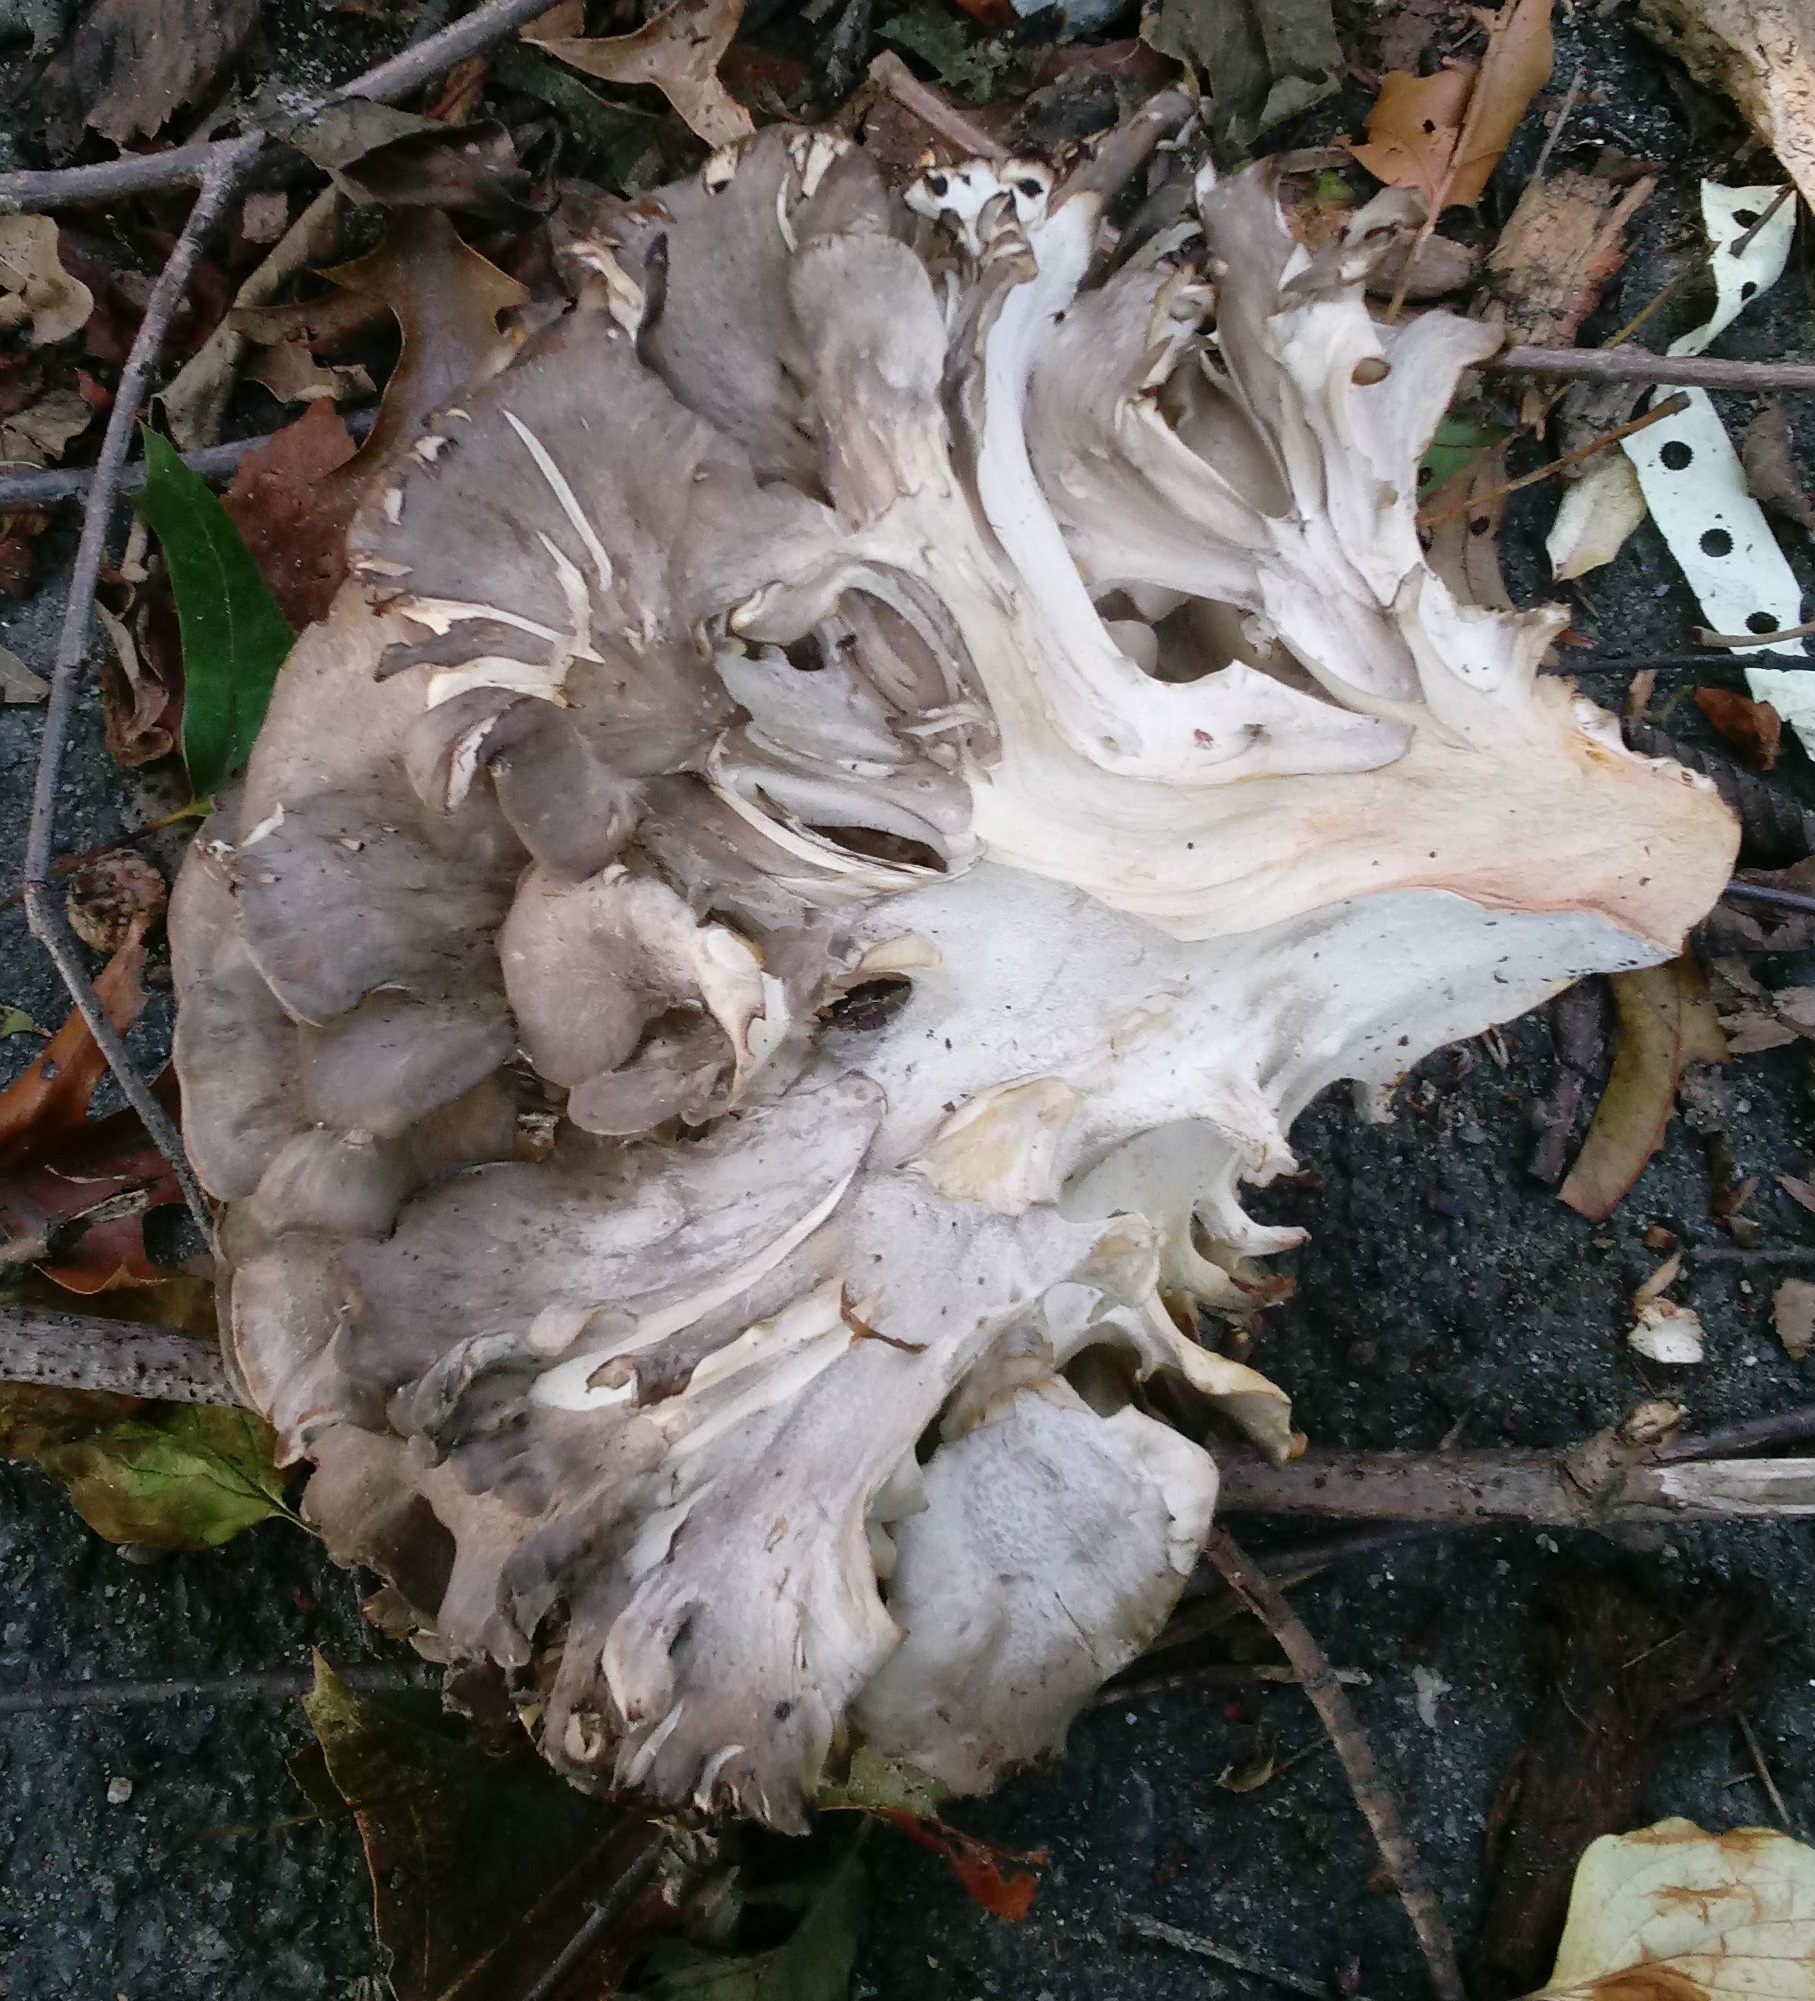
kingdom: Fungi
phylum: Basidiomycota
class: Agaricomycetes
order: Polyporales
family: Grifolaceae
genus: Grifola
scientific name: Grifola frondosa
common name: Hen of the woods
